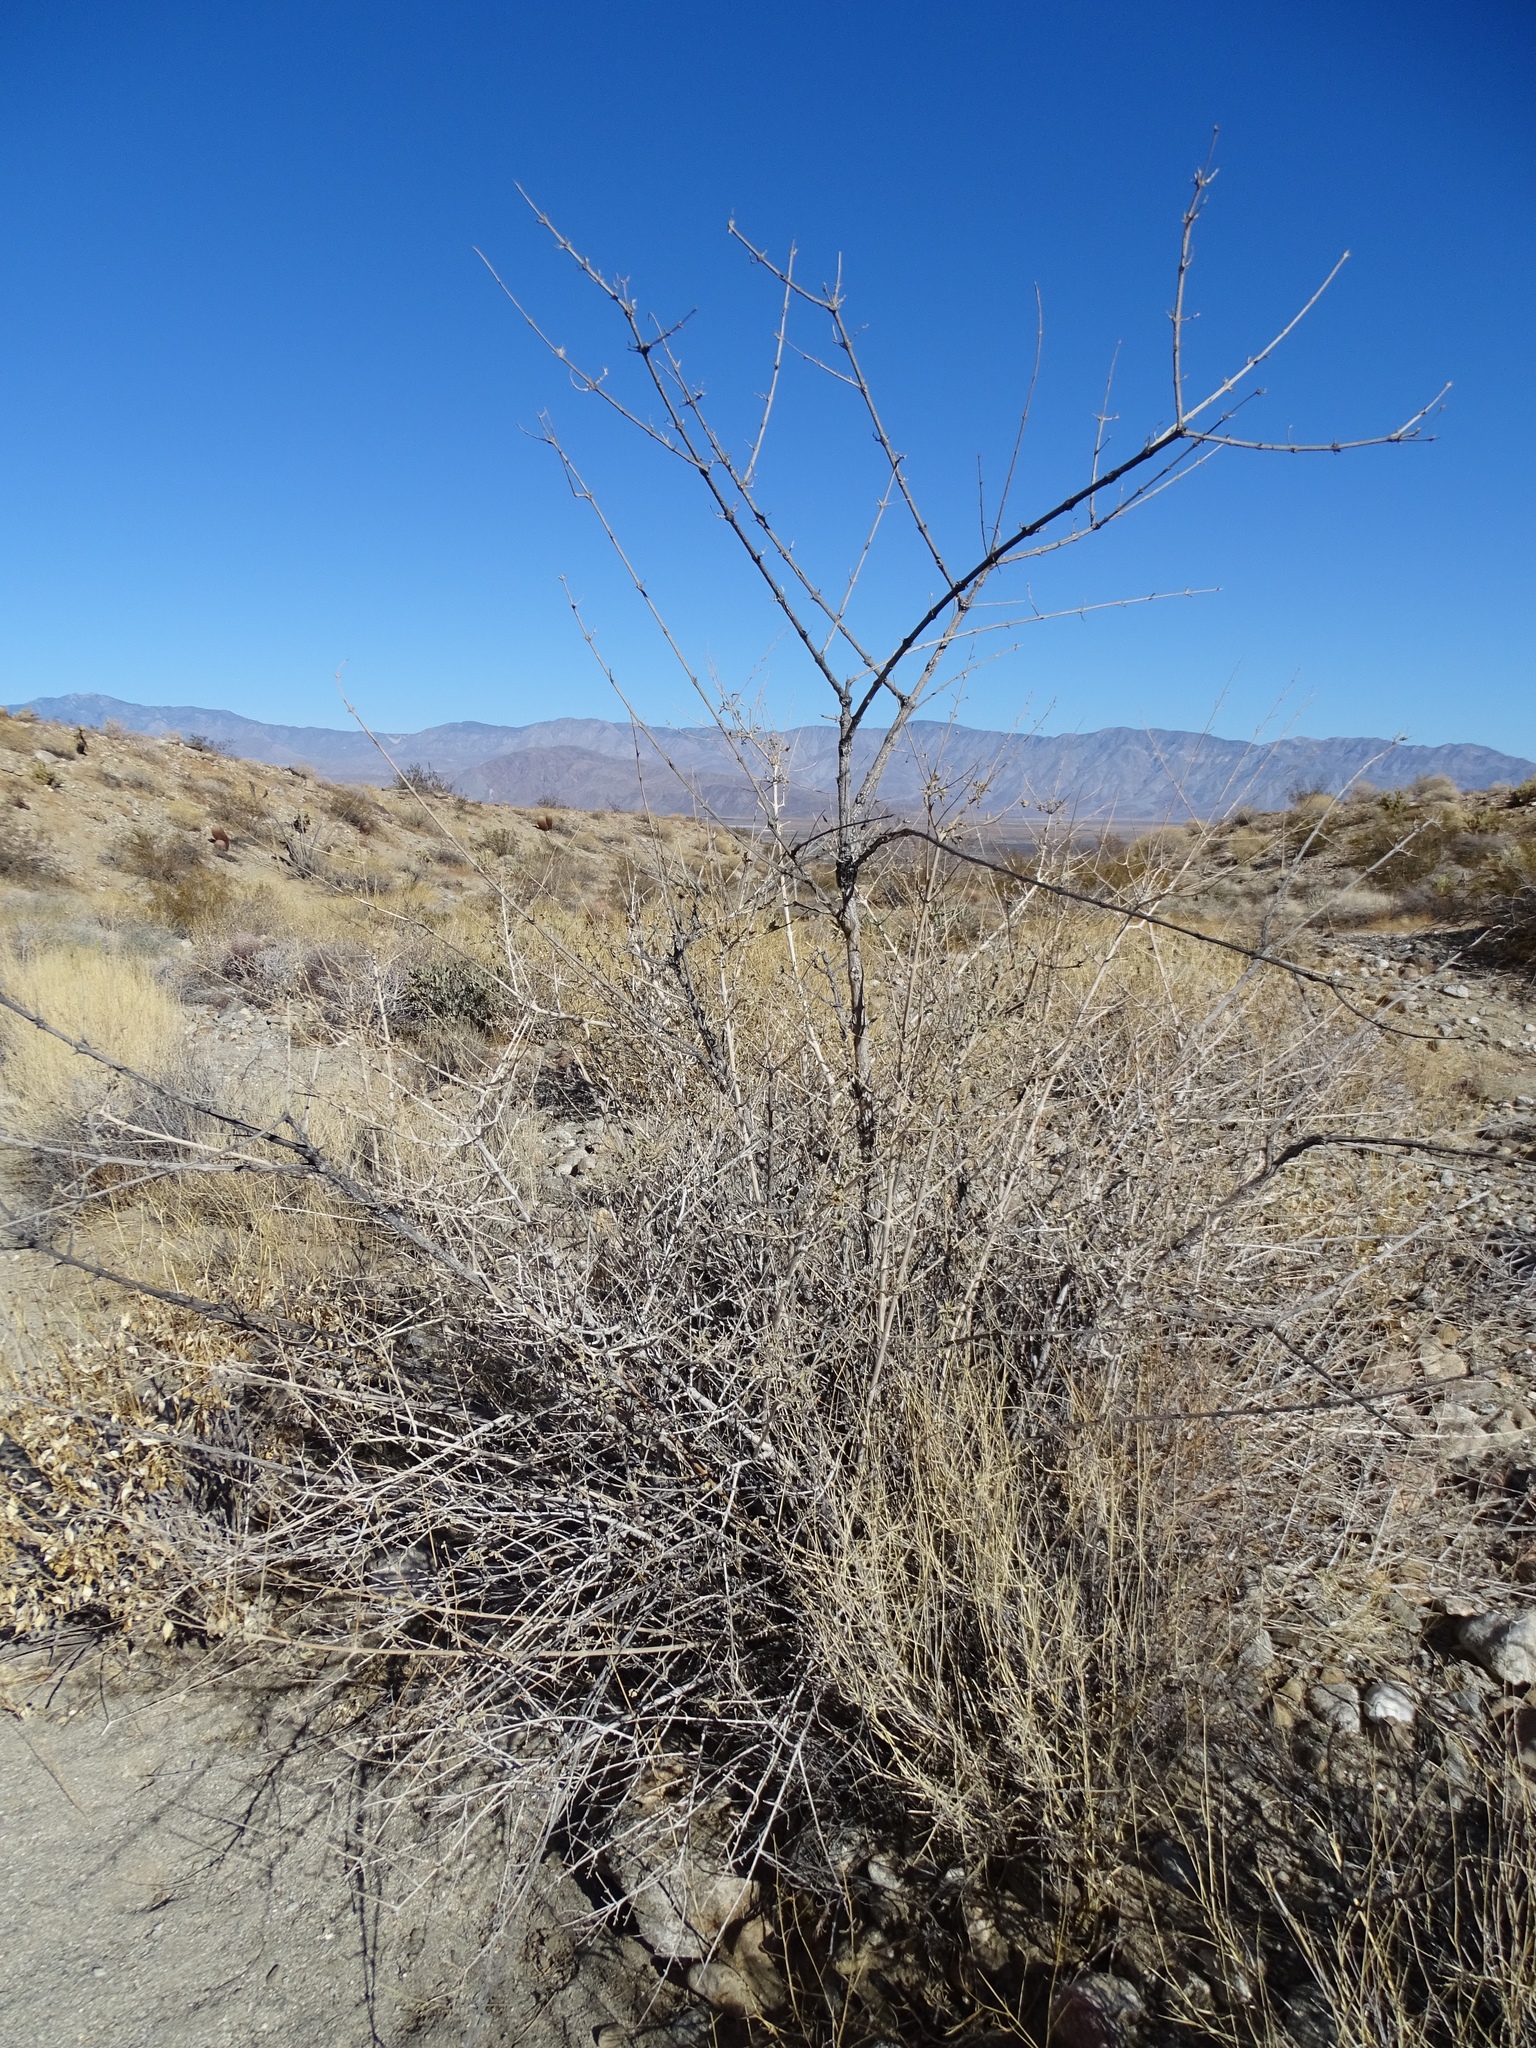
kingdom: Plantae
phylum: Tracheophyta
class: Magnoliopsida
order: Lamiales
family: Lamiaceae
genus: Condea
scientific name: Condea emoryi
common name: Chia
